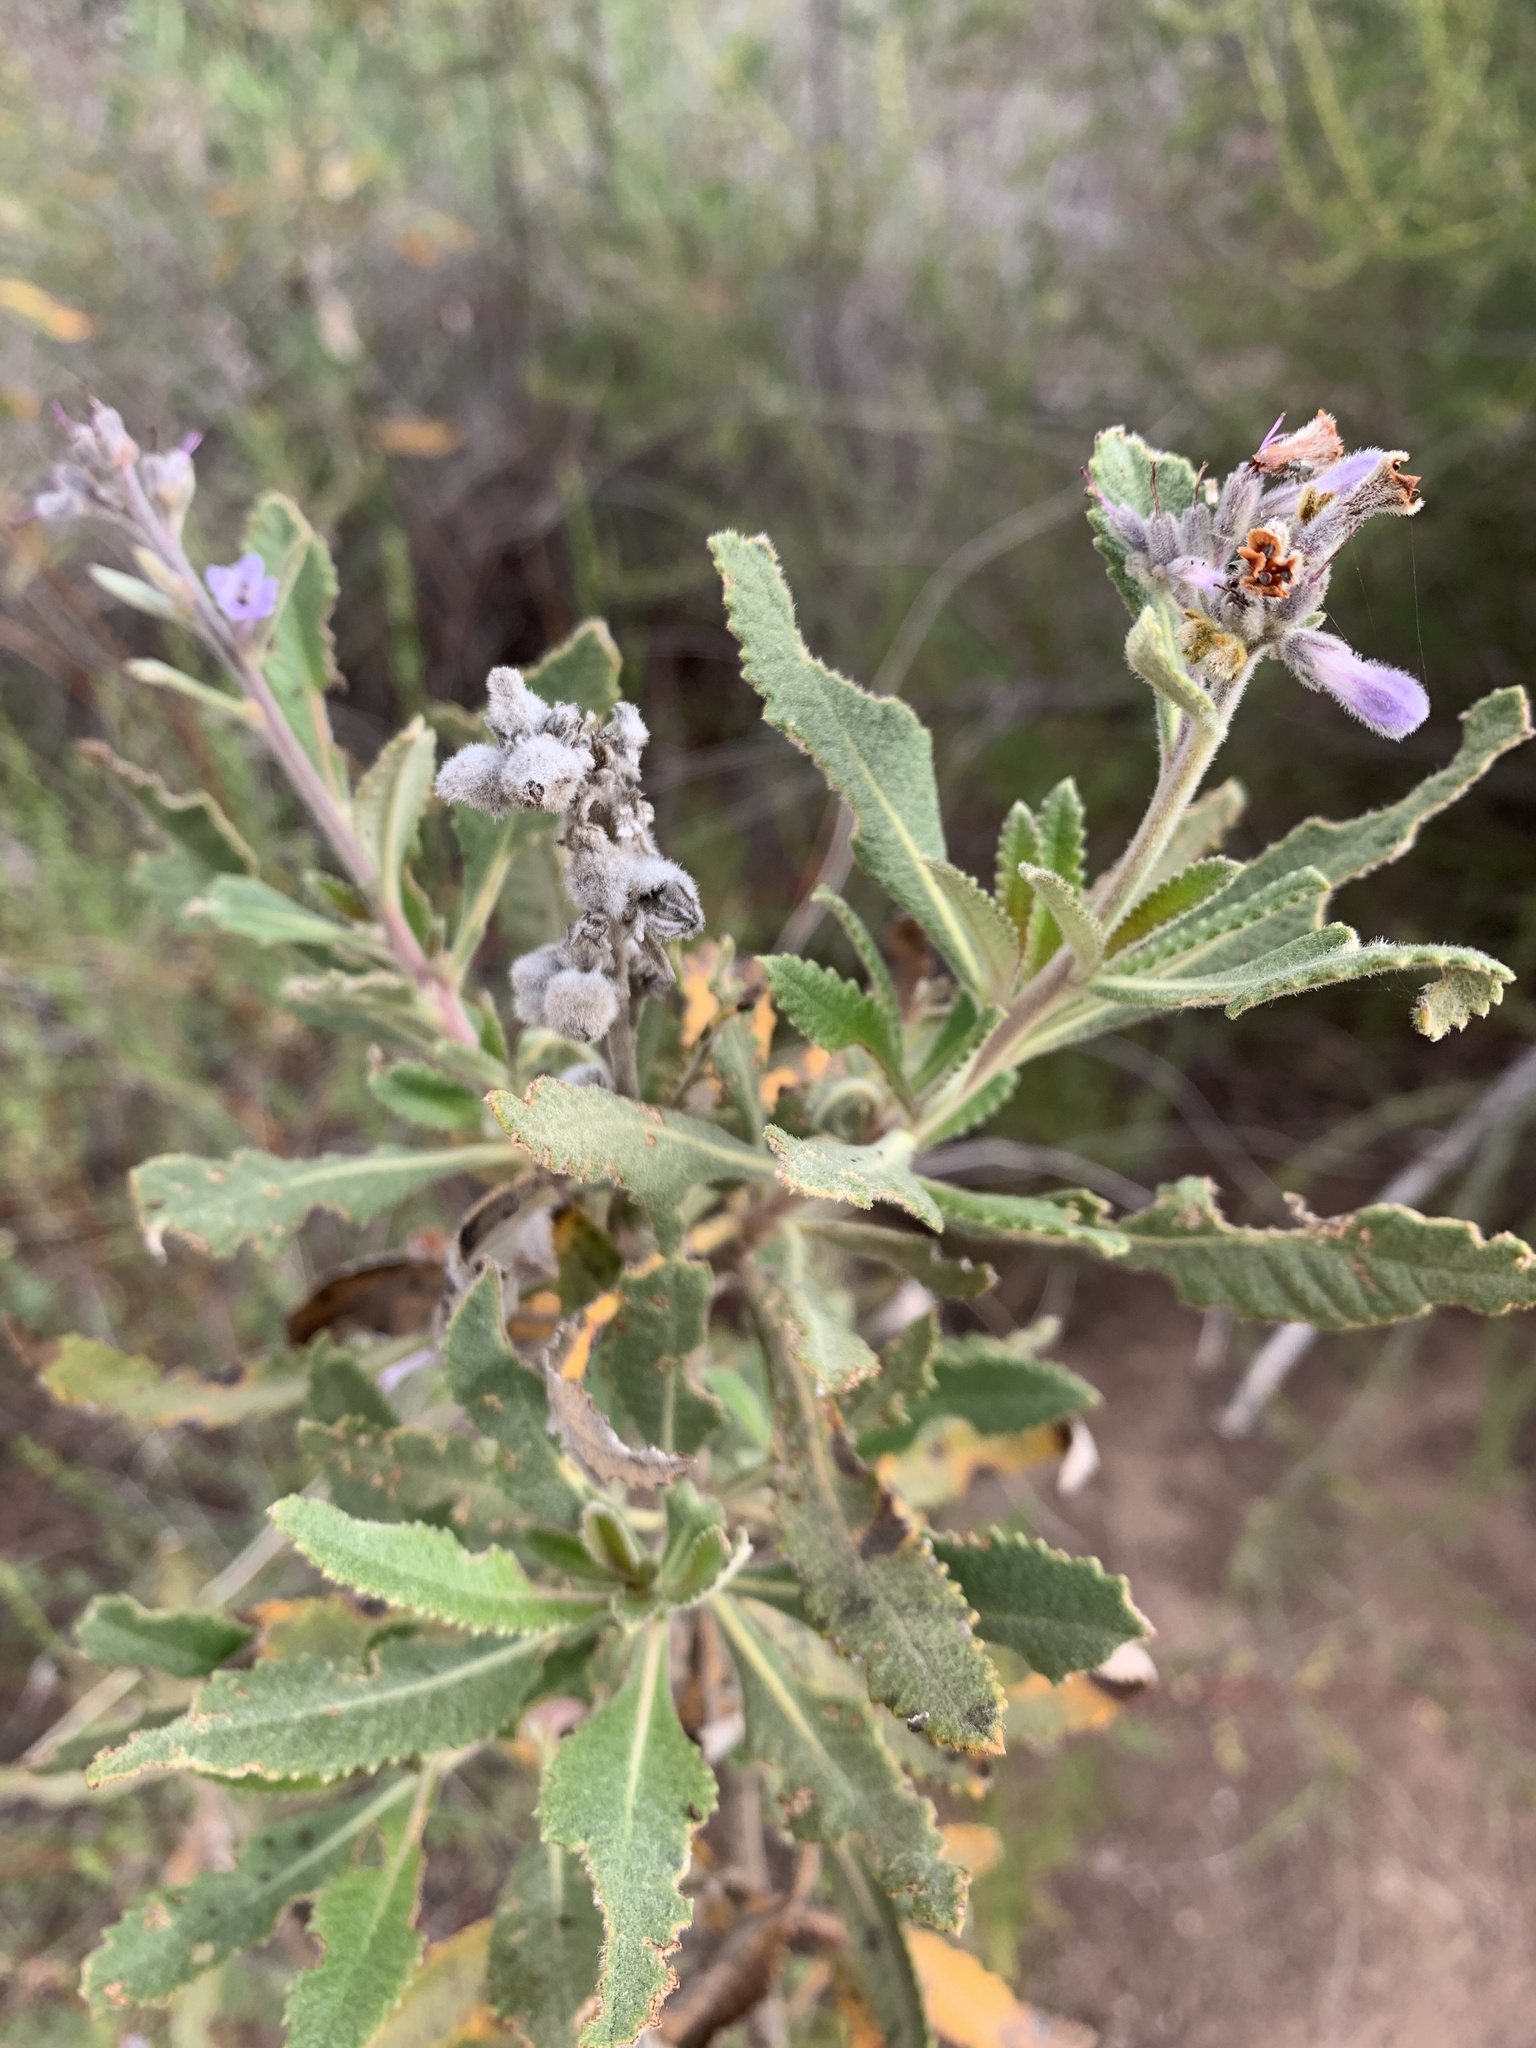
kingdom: Plantae
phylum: Tracheophyta
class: Magnoliopsida
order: Boraginales
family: Namaceae
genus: Eriodictyon
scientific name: Eriodictyon crassifolium
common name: Thick-leaf yerba-santa
